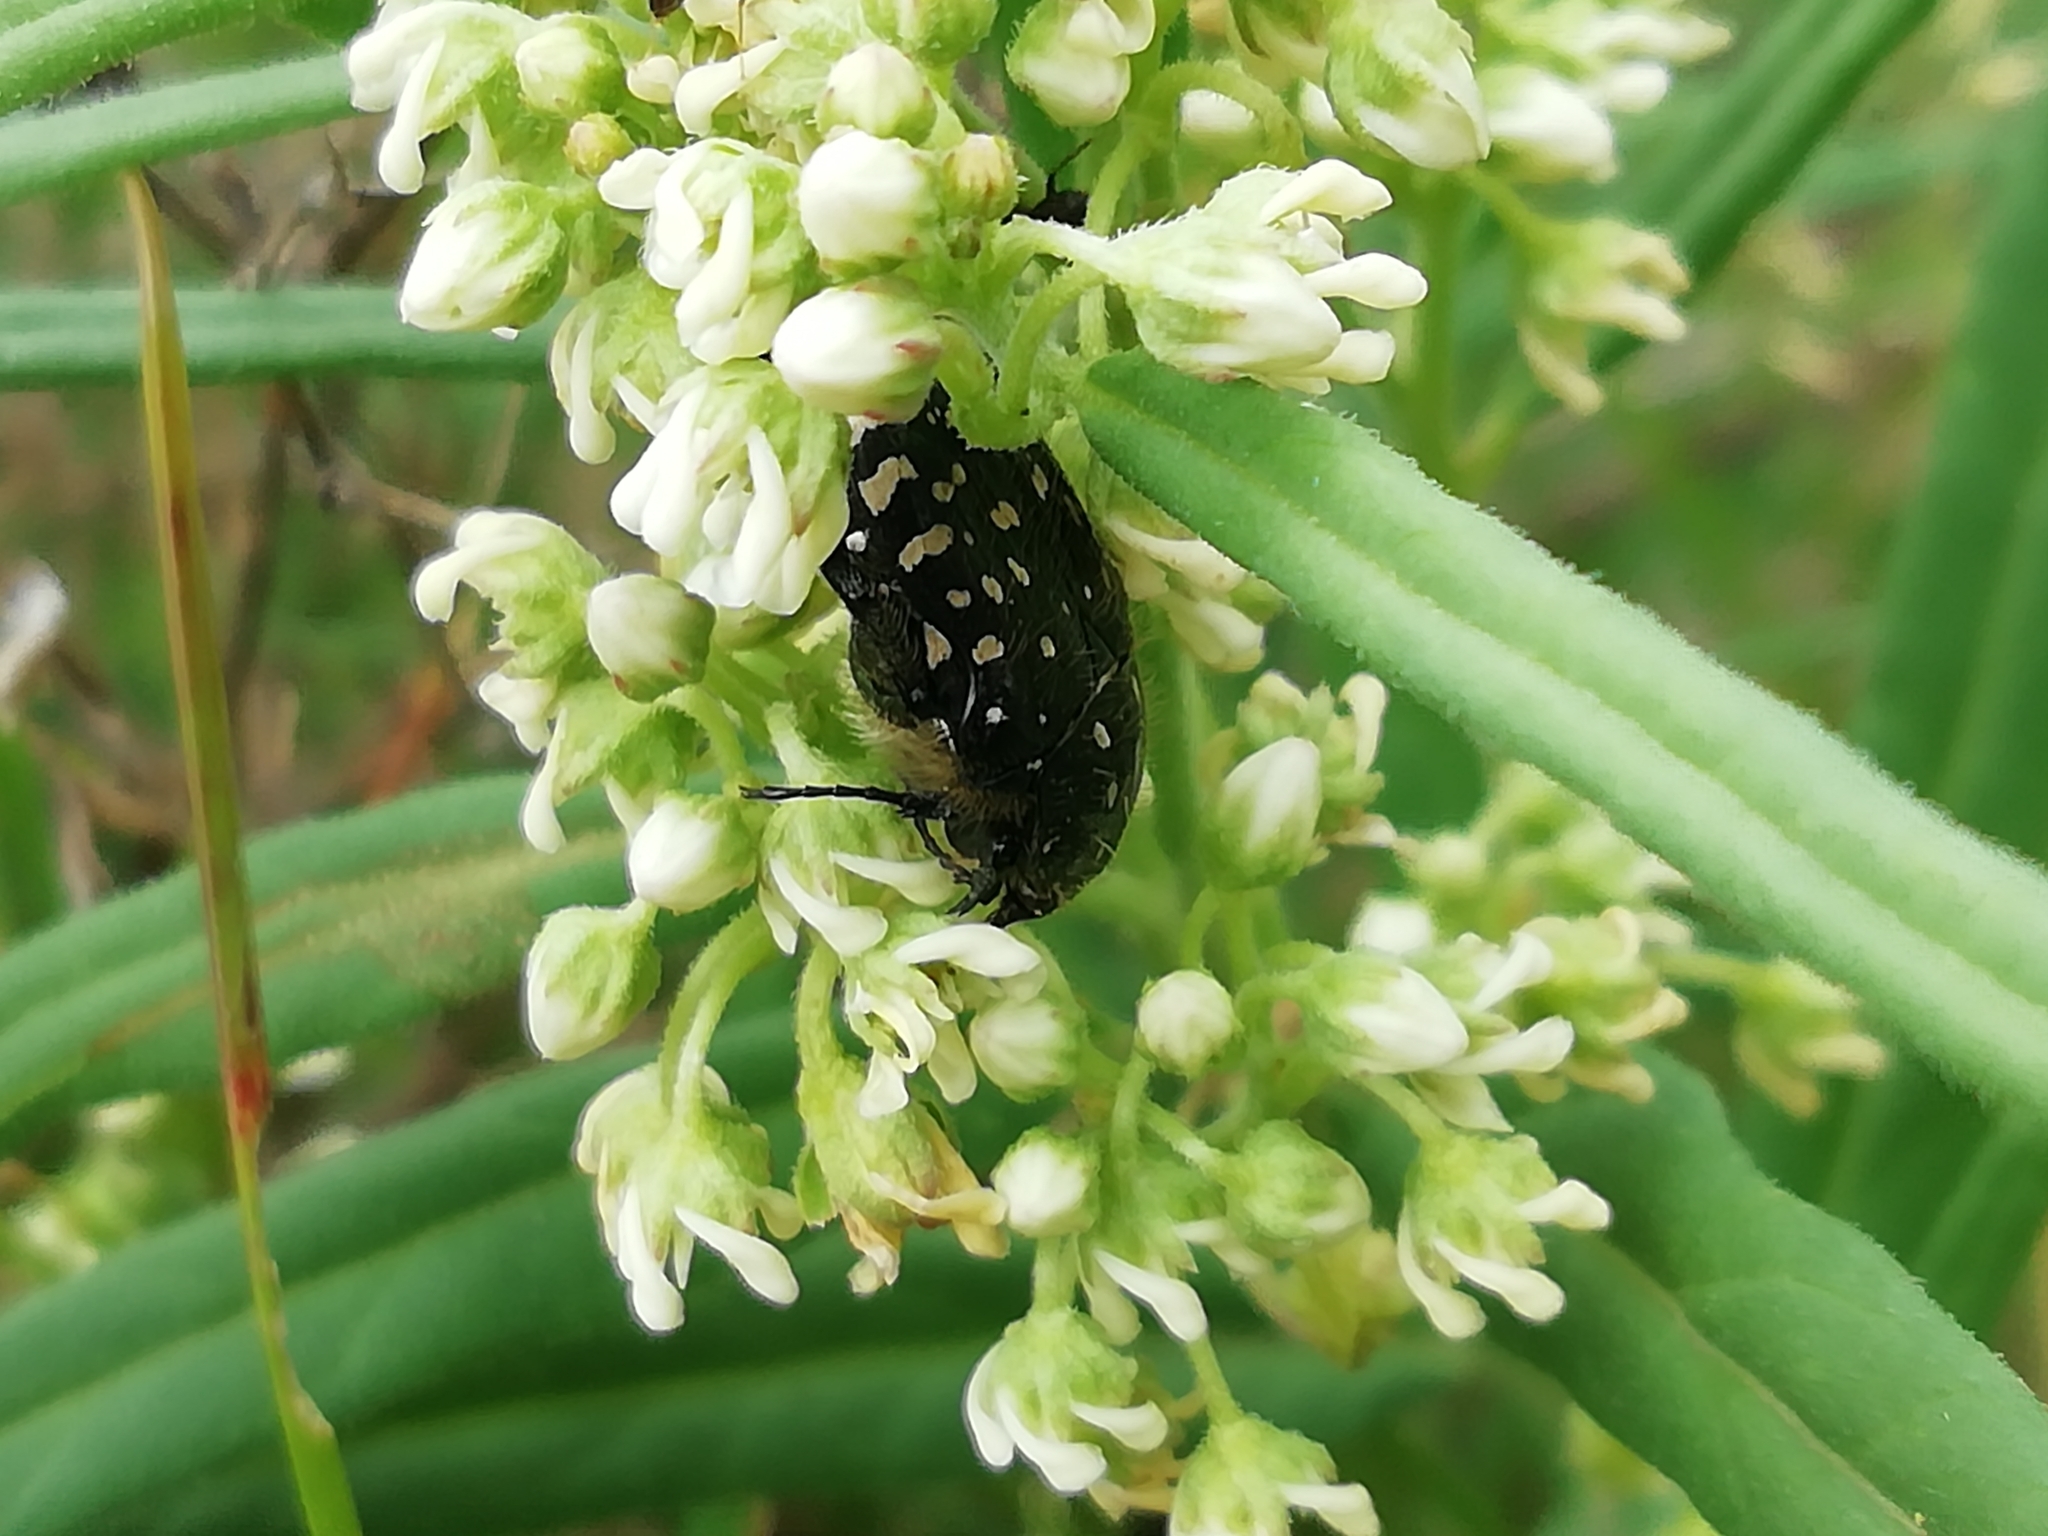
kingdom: Animalia
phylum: Arthropoda
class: Insecta
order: Coleoptera
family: Scarabaeidae
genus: Oxythyrea
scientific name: Oxythyrea funesta
